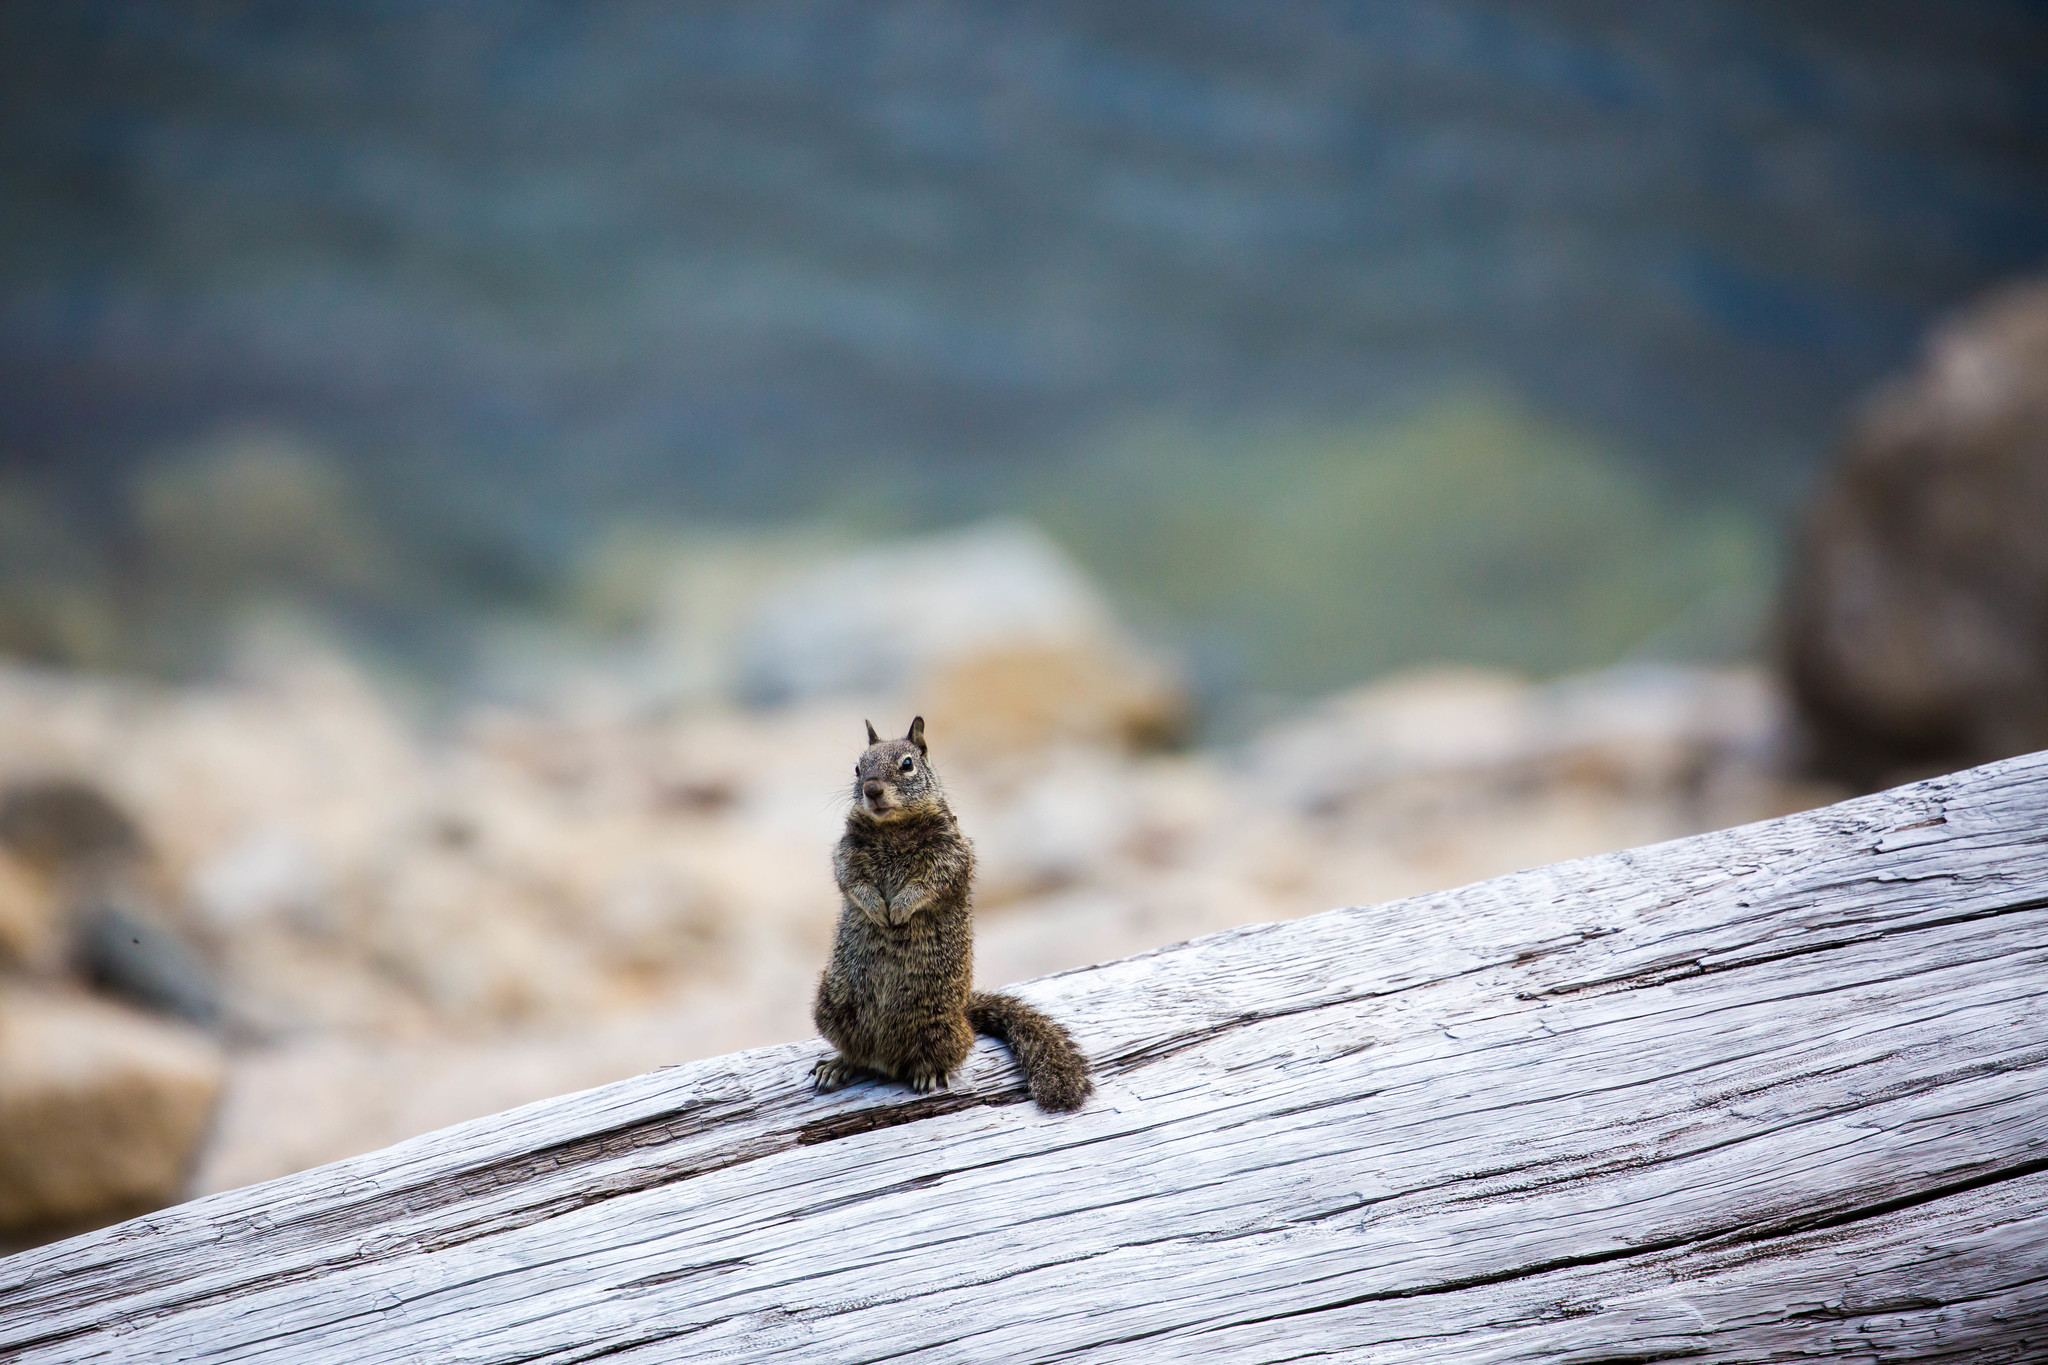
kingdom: Animalia
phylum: Chordata
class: Mammalia
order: Rodentia
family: Sciuridae
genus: Otospermophilus
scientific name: Otospermophilus beecheyi
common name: California ground squirrel
